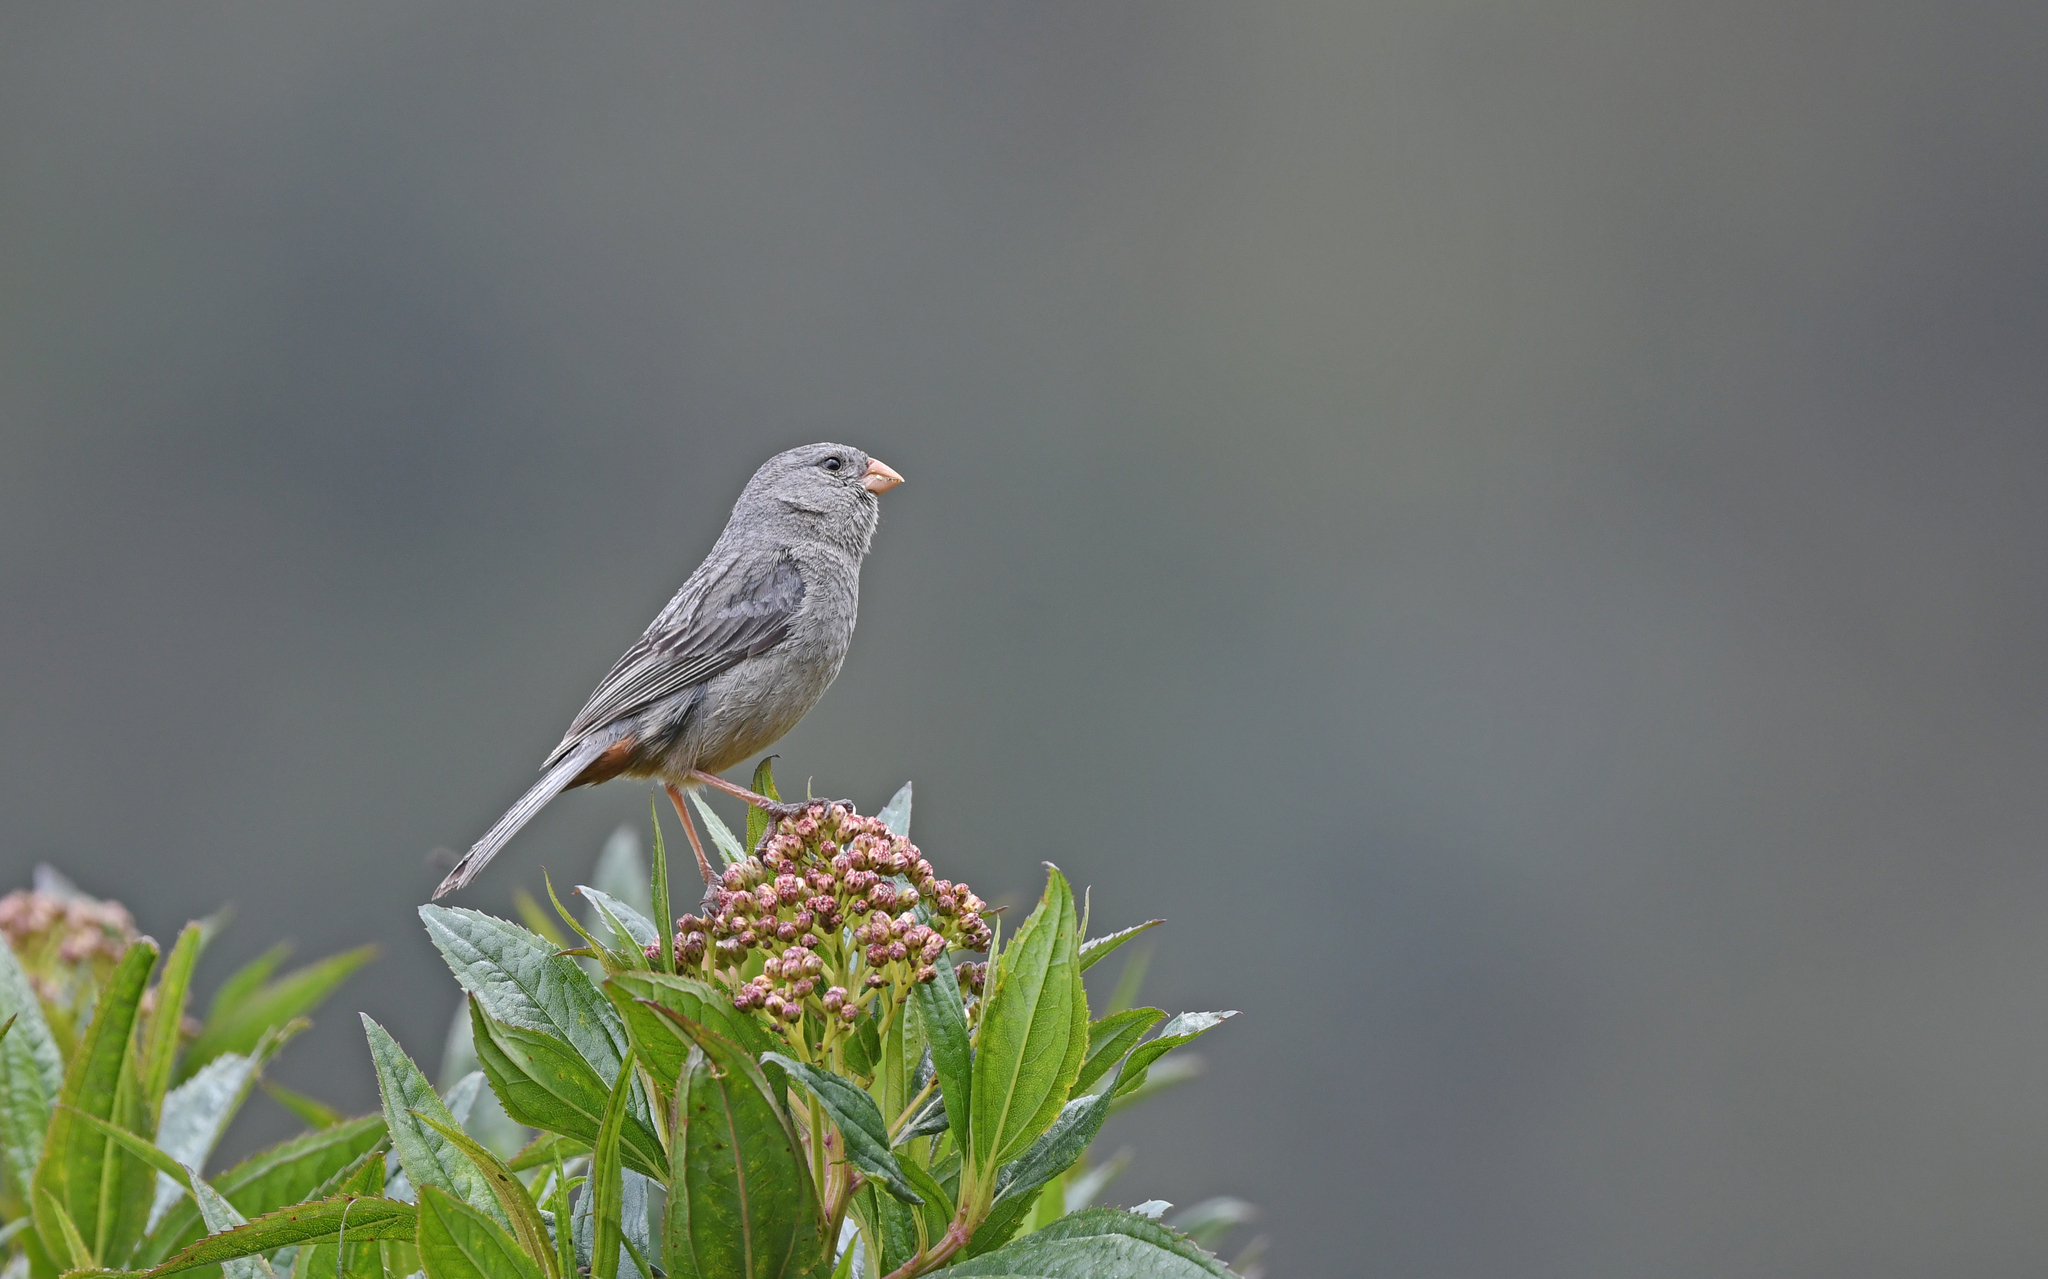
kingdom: Animalia
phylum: Chordata
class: Aves
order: Passeriformes
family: Thraupidae
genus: Catamenia
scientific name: Catamenia homochroa
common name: Paramo seedeater
